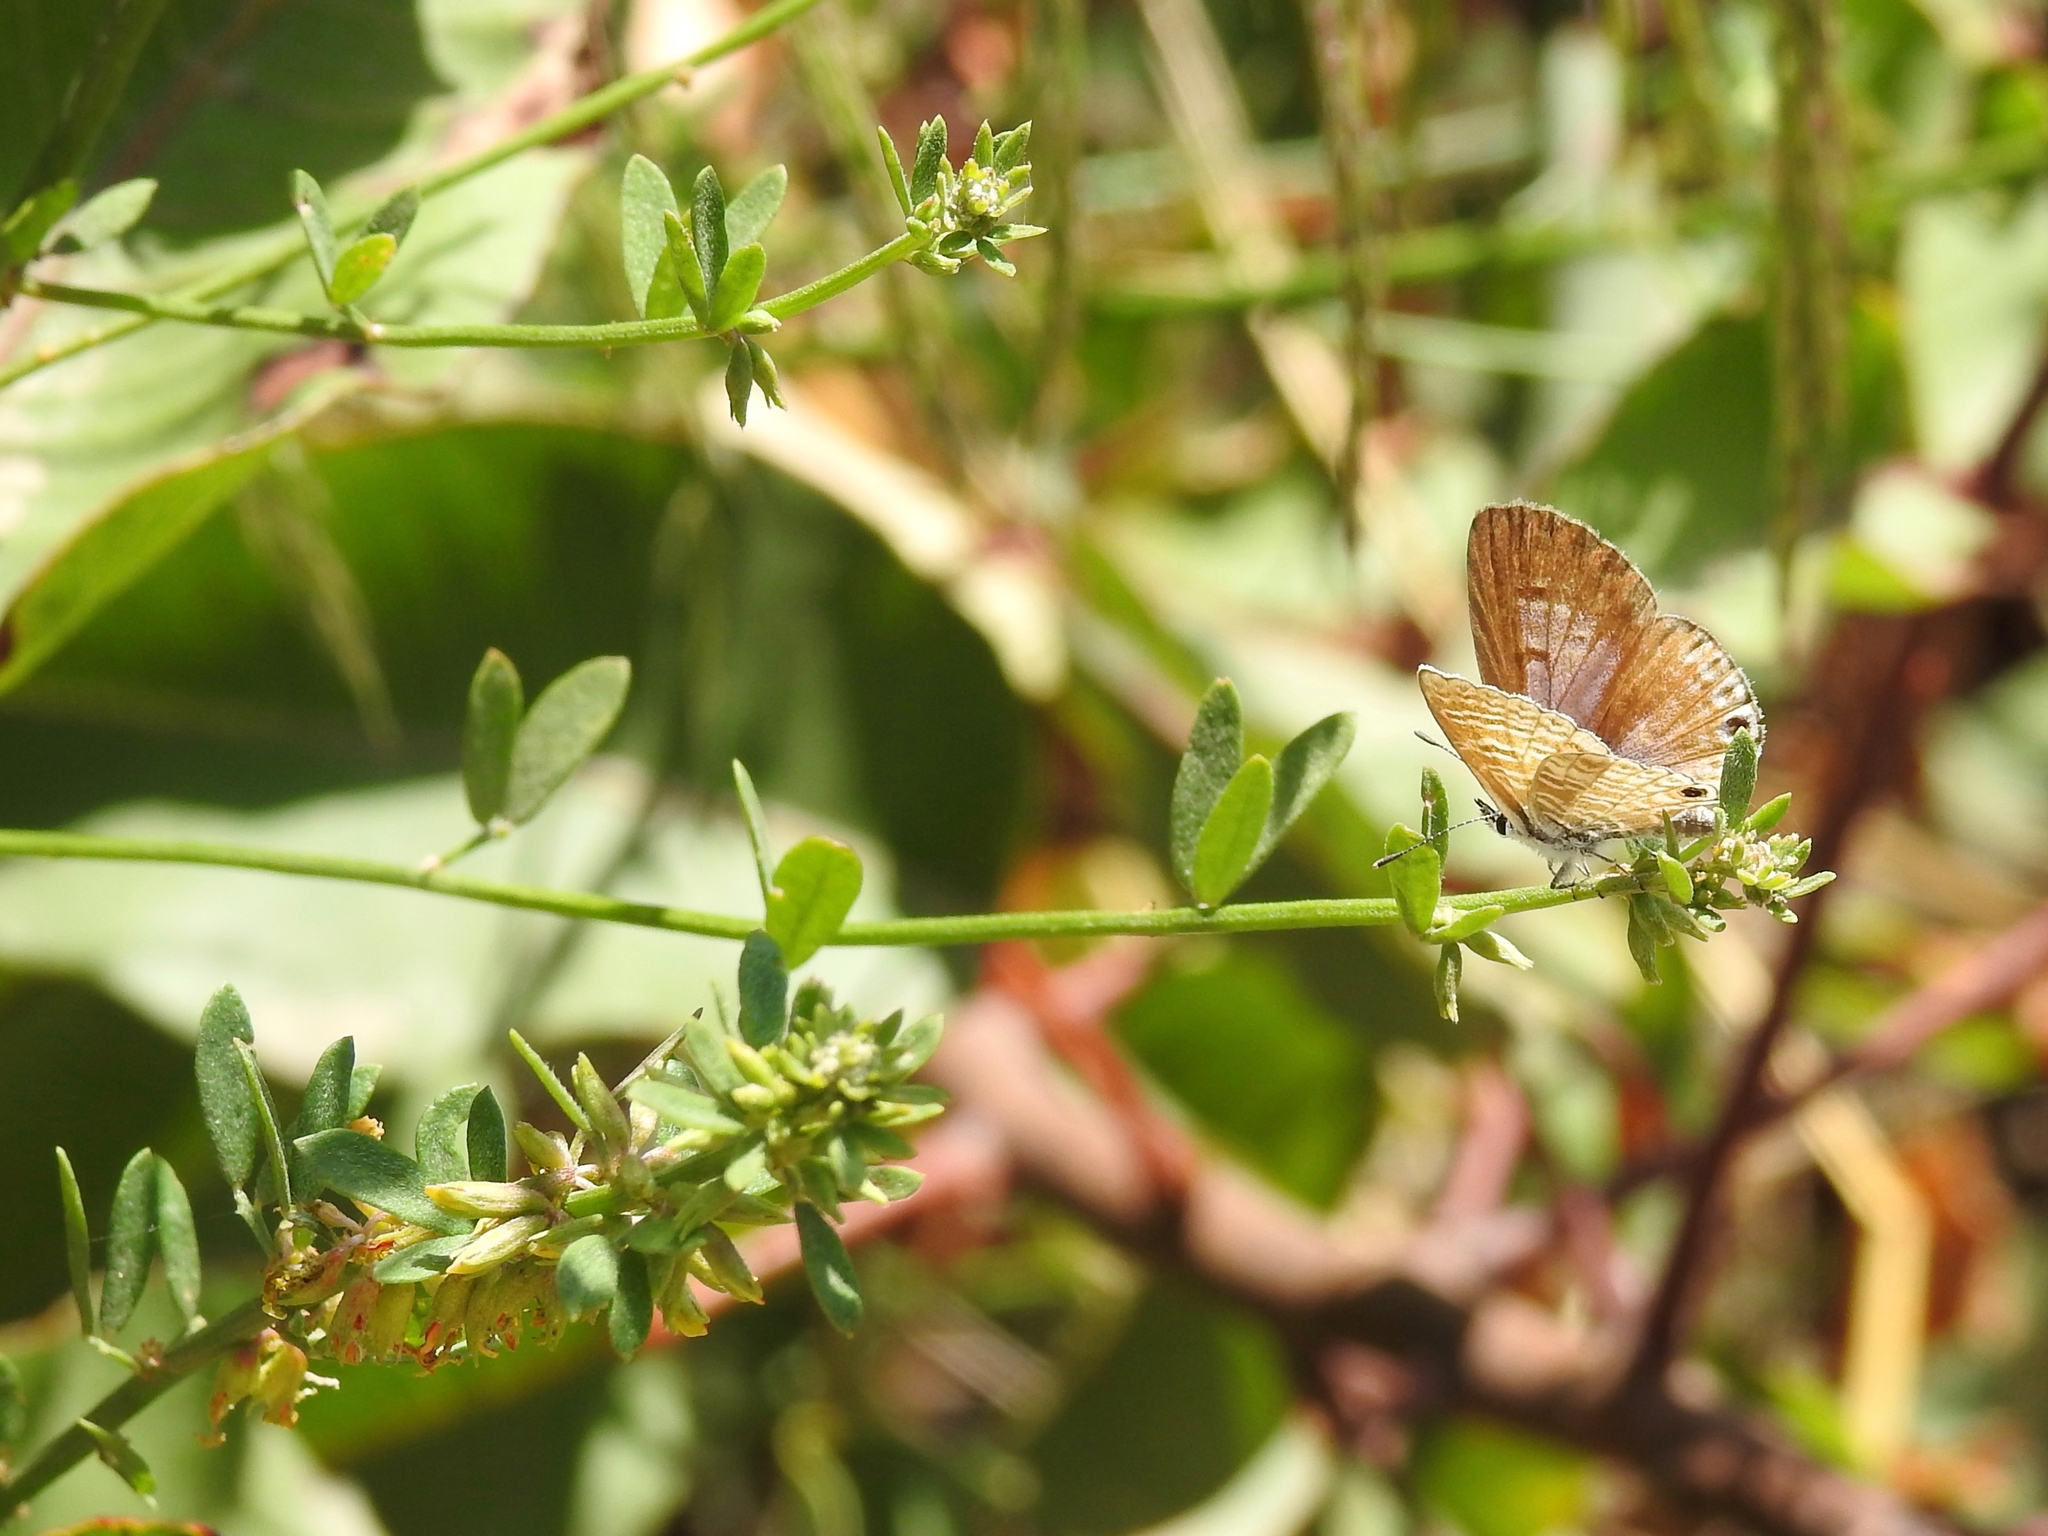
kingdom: Animalia
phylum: Arthropoda
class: Insecta
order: Lepidoptera
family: Lycaenidae
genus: Leptotes
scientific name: Leptotes marina
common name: Marine blue
